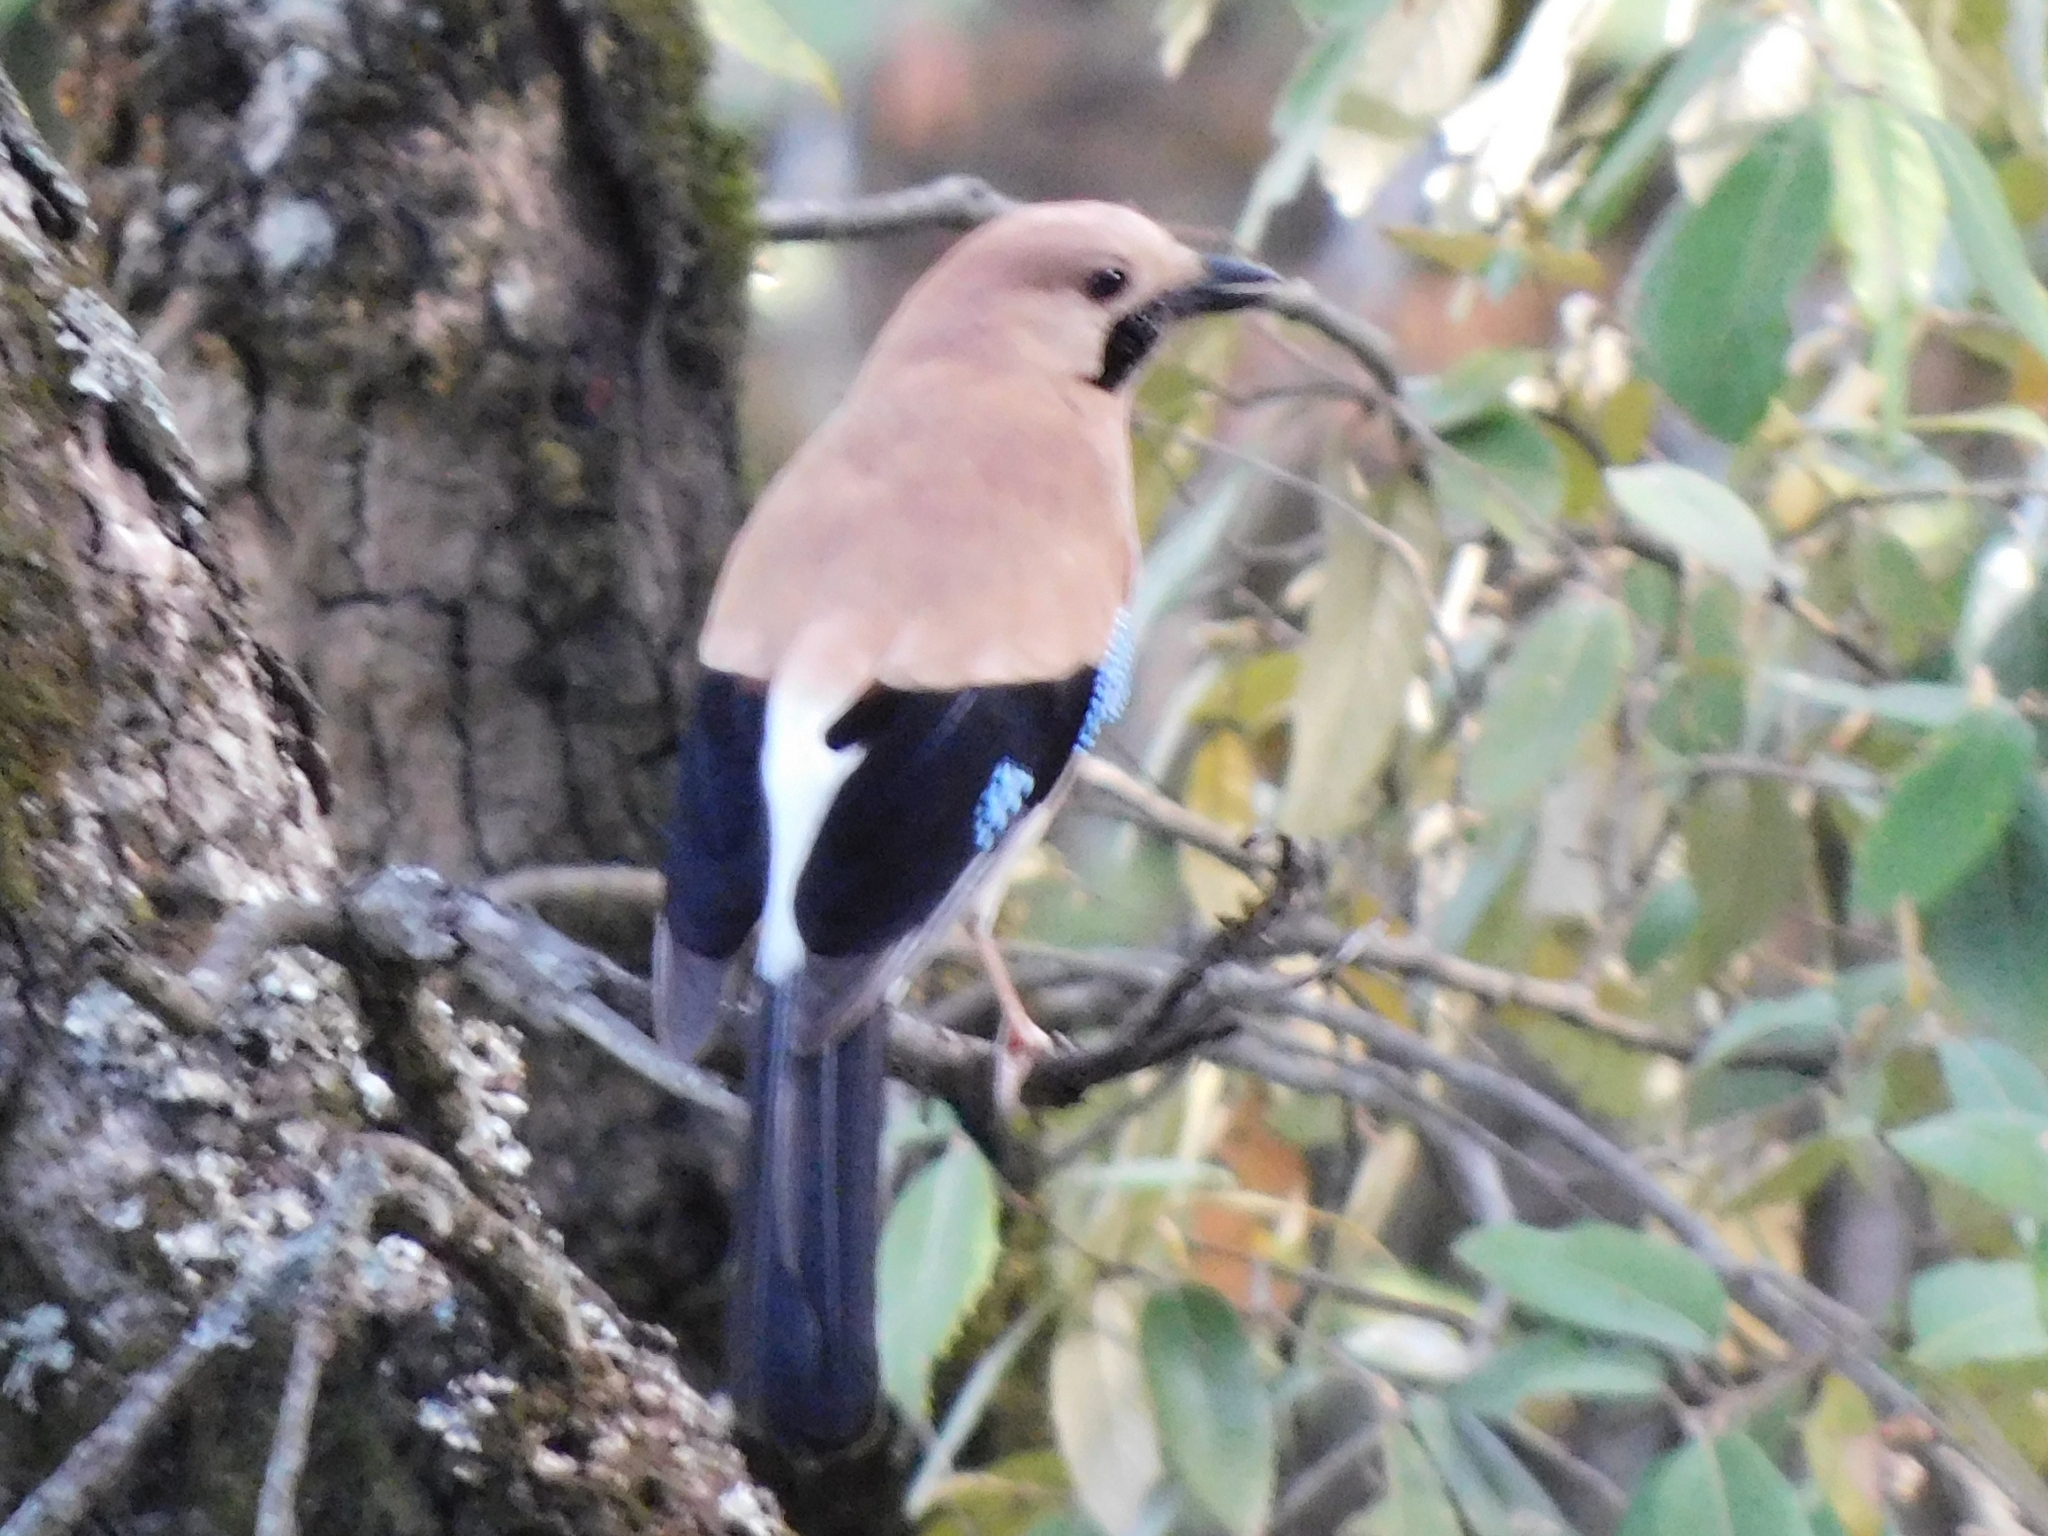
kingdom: Animalia
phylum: Chordata
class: Aves
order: Passeriformes
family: Corvidae
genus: Garrulus
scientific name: Garrulus glandarius
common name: Eurasian jay
